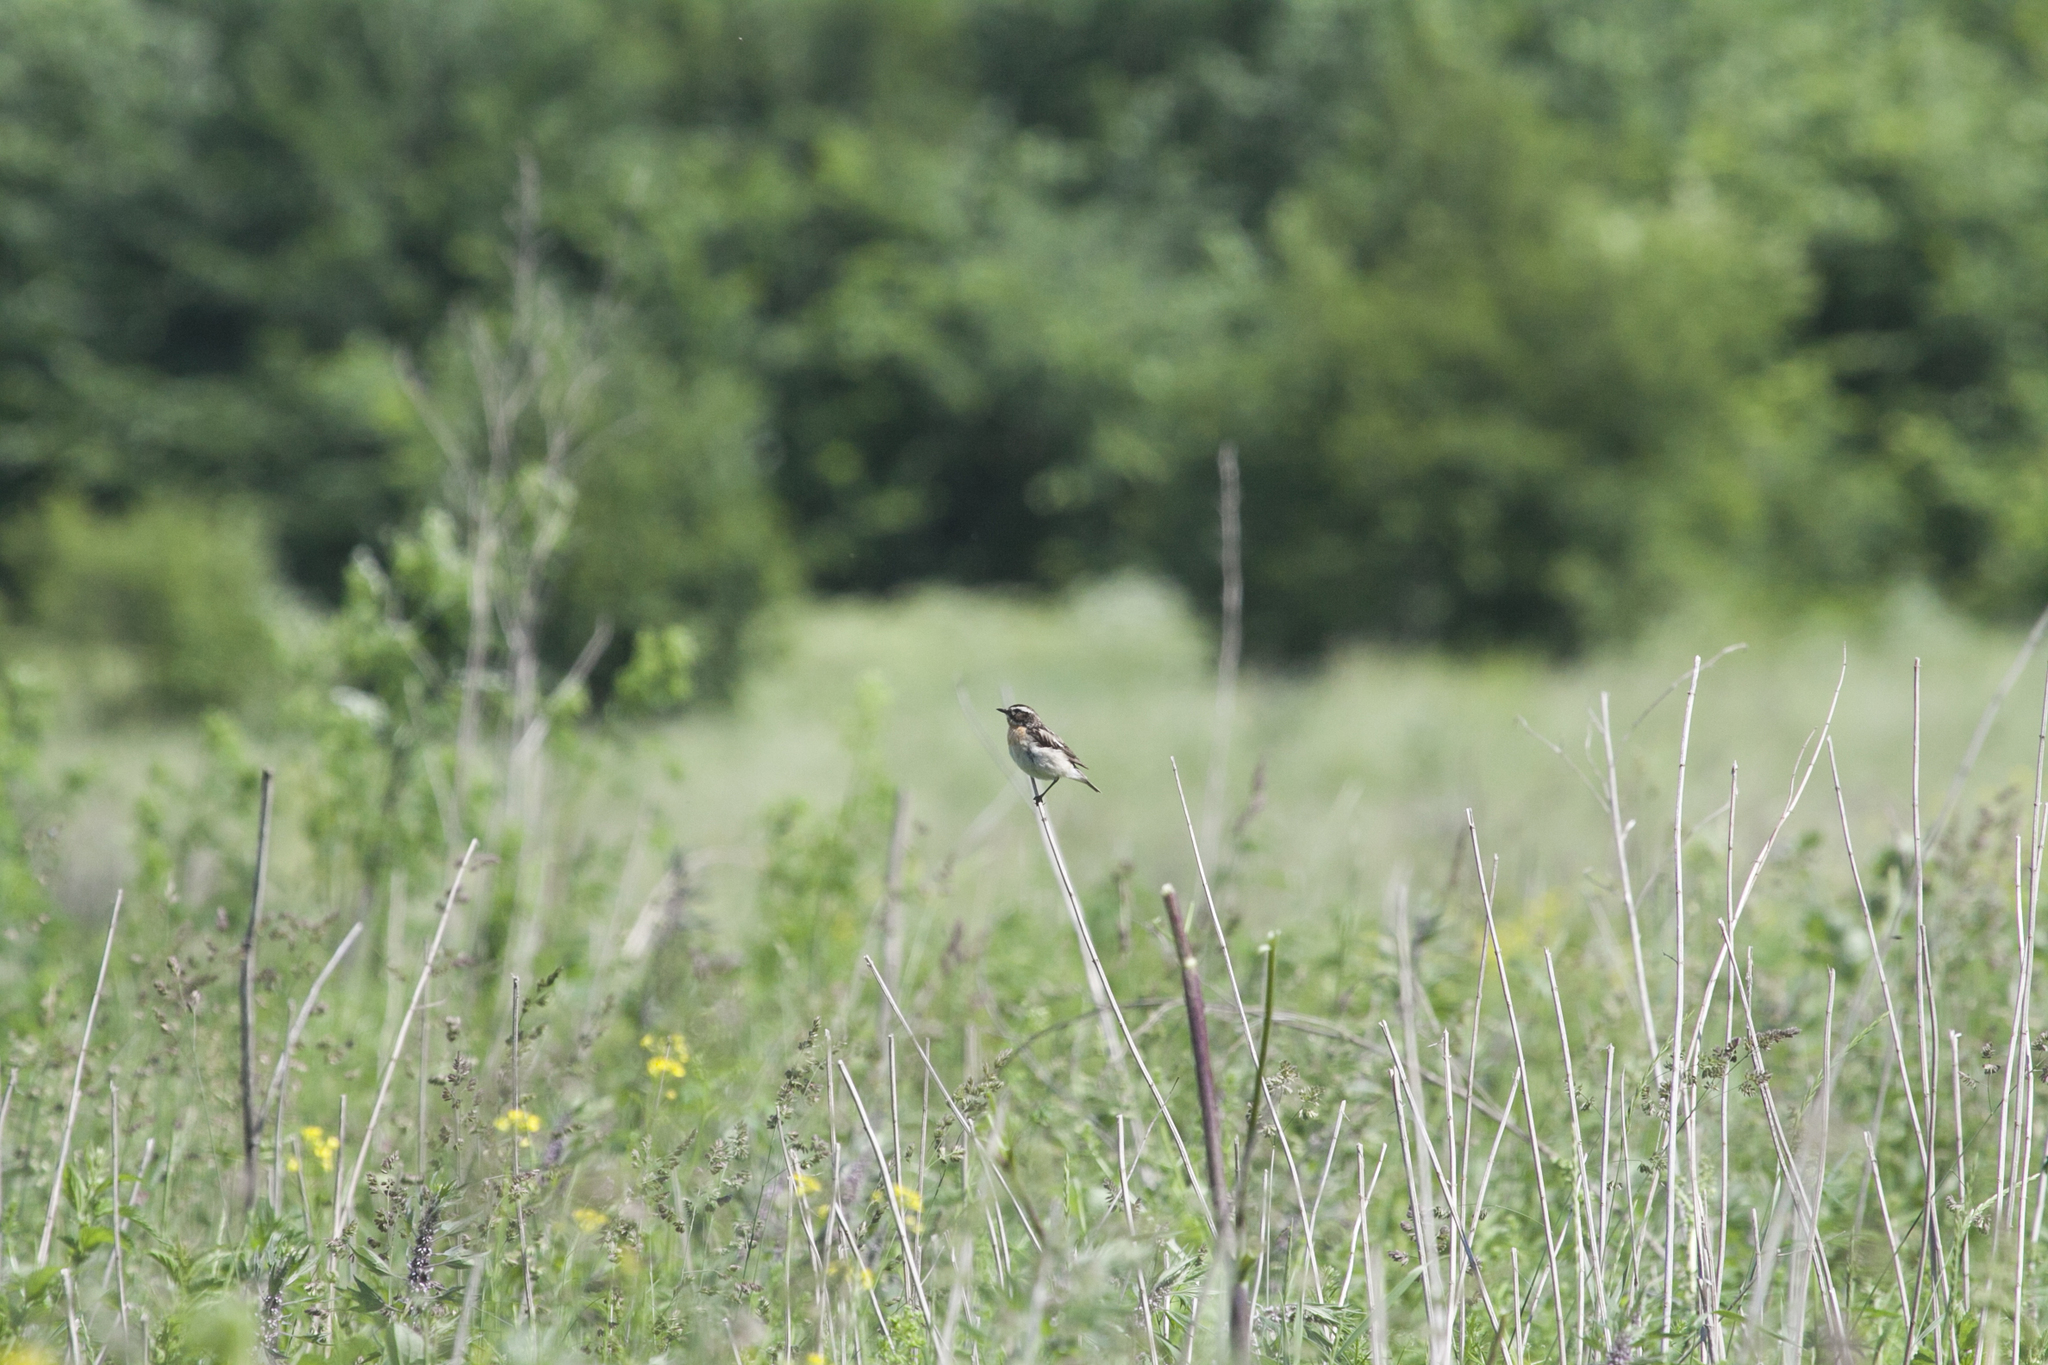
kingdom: Animalia
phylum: Chordata
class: Aves
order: Passeriformes
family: Muscicapidae
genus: Saxicola
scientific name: Saxicola rubetra
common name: Whinchat
